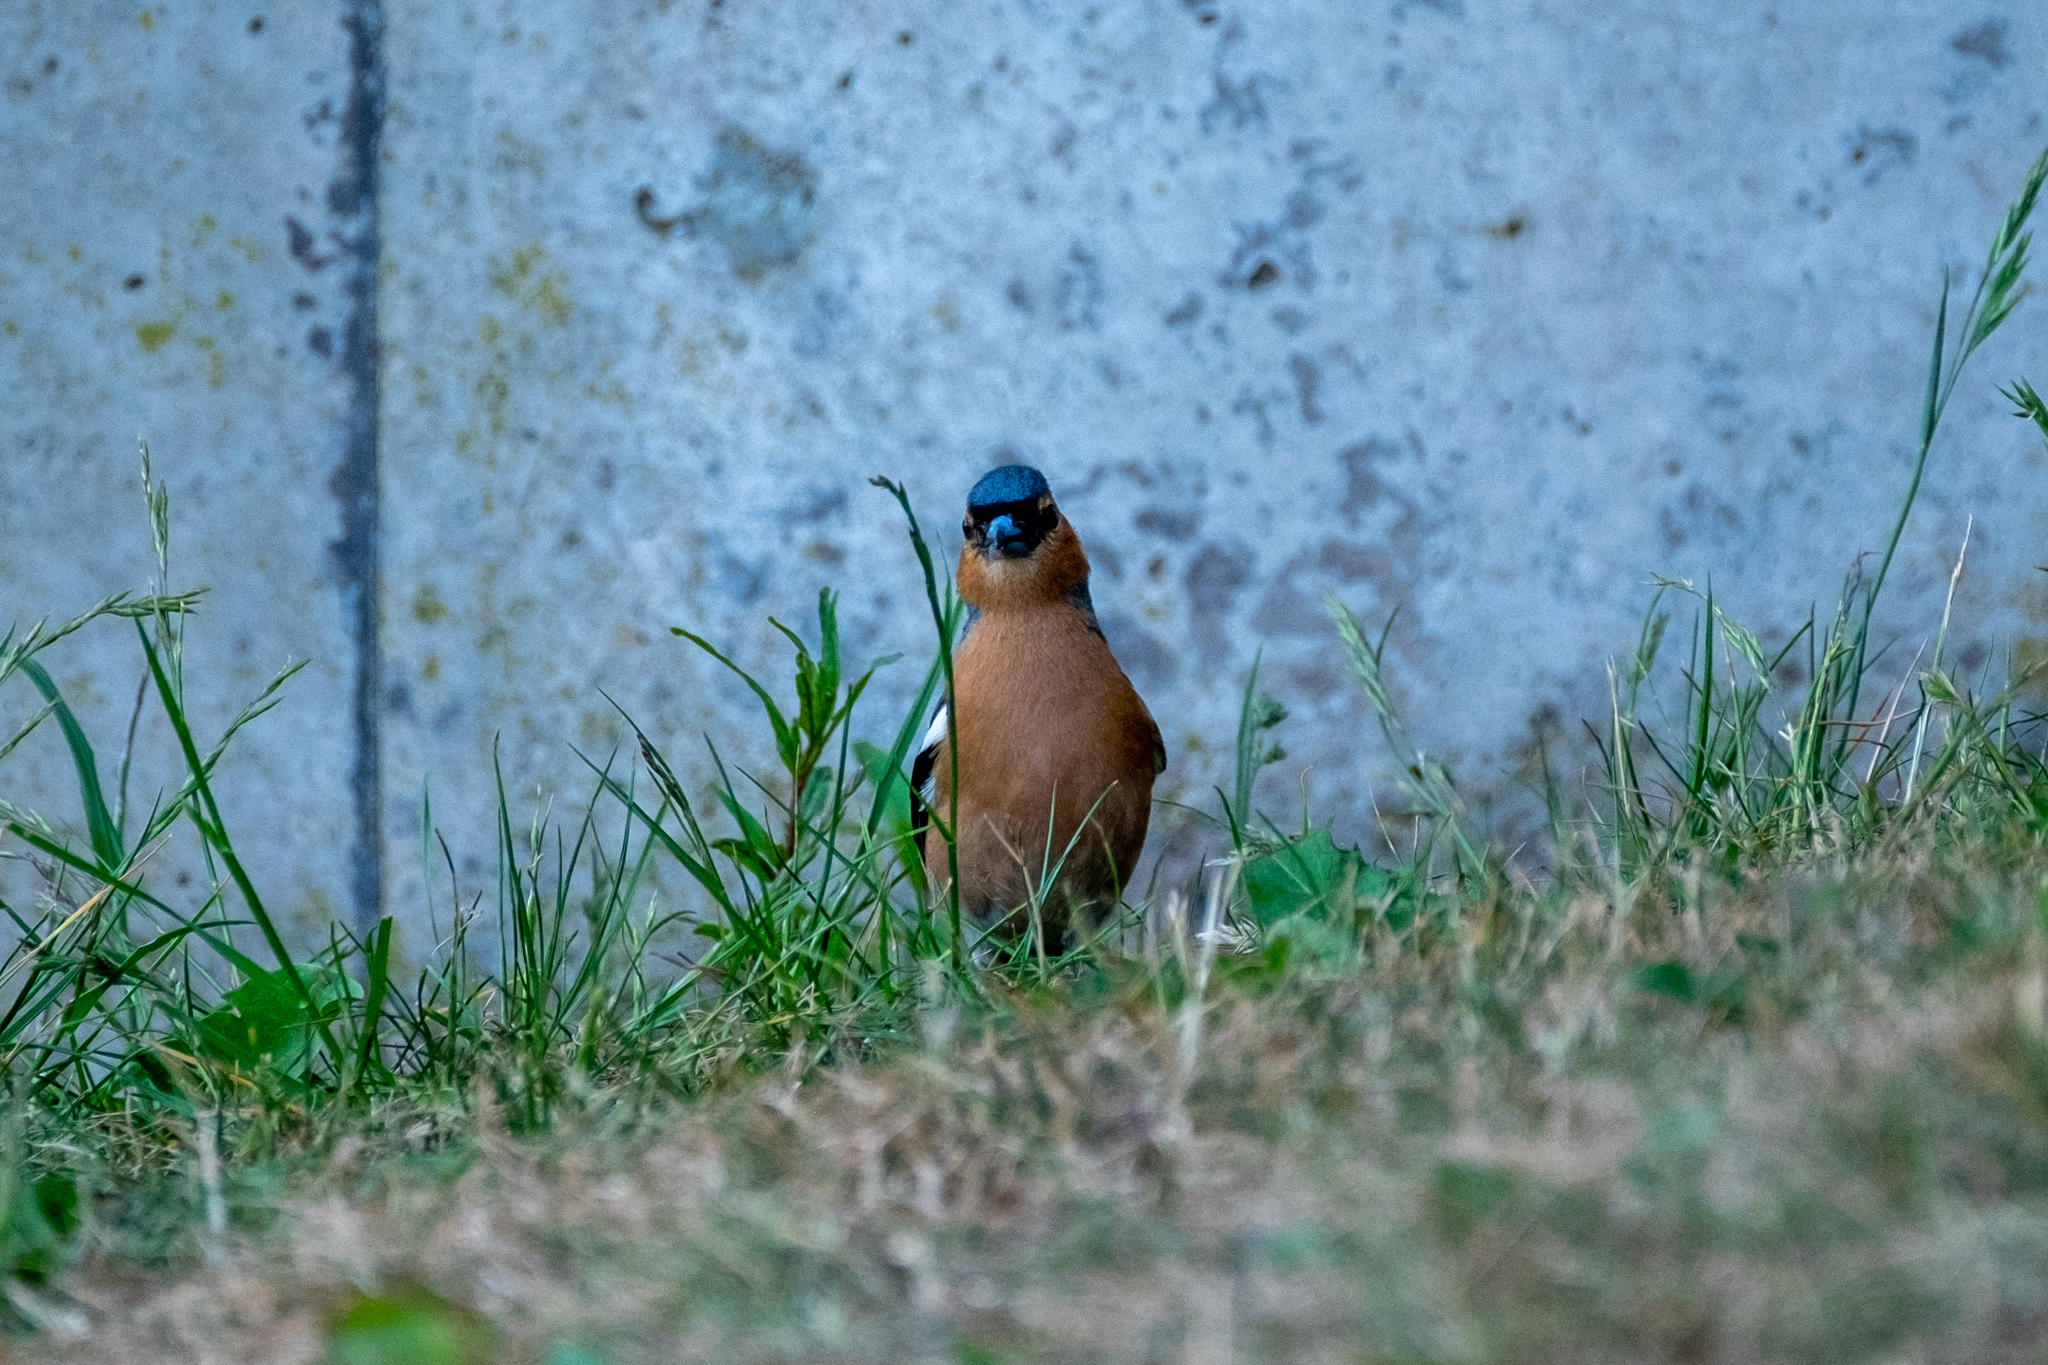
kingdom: Animalia
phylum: Chordata
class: Aves
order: Passeriformes
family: Fringillidae
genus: Fringilla
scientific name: Fringilla coelebs
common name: Common chaffinch
